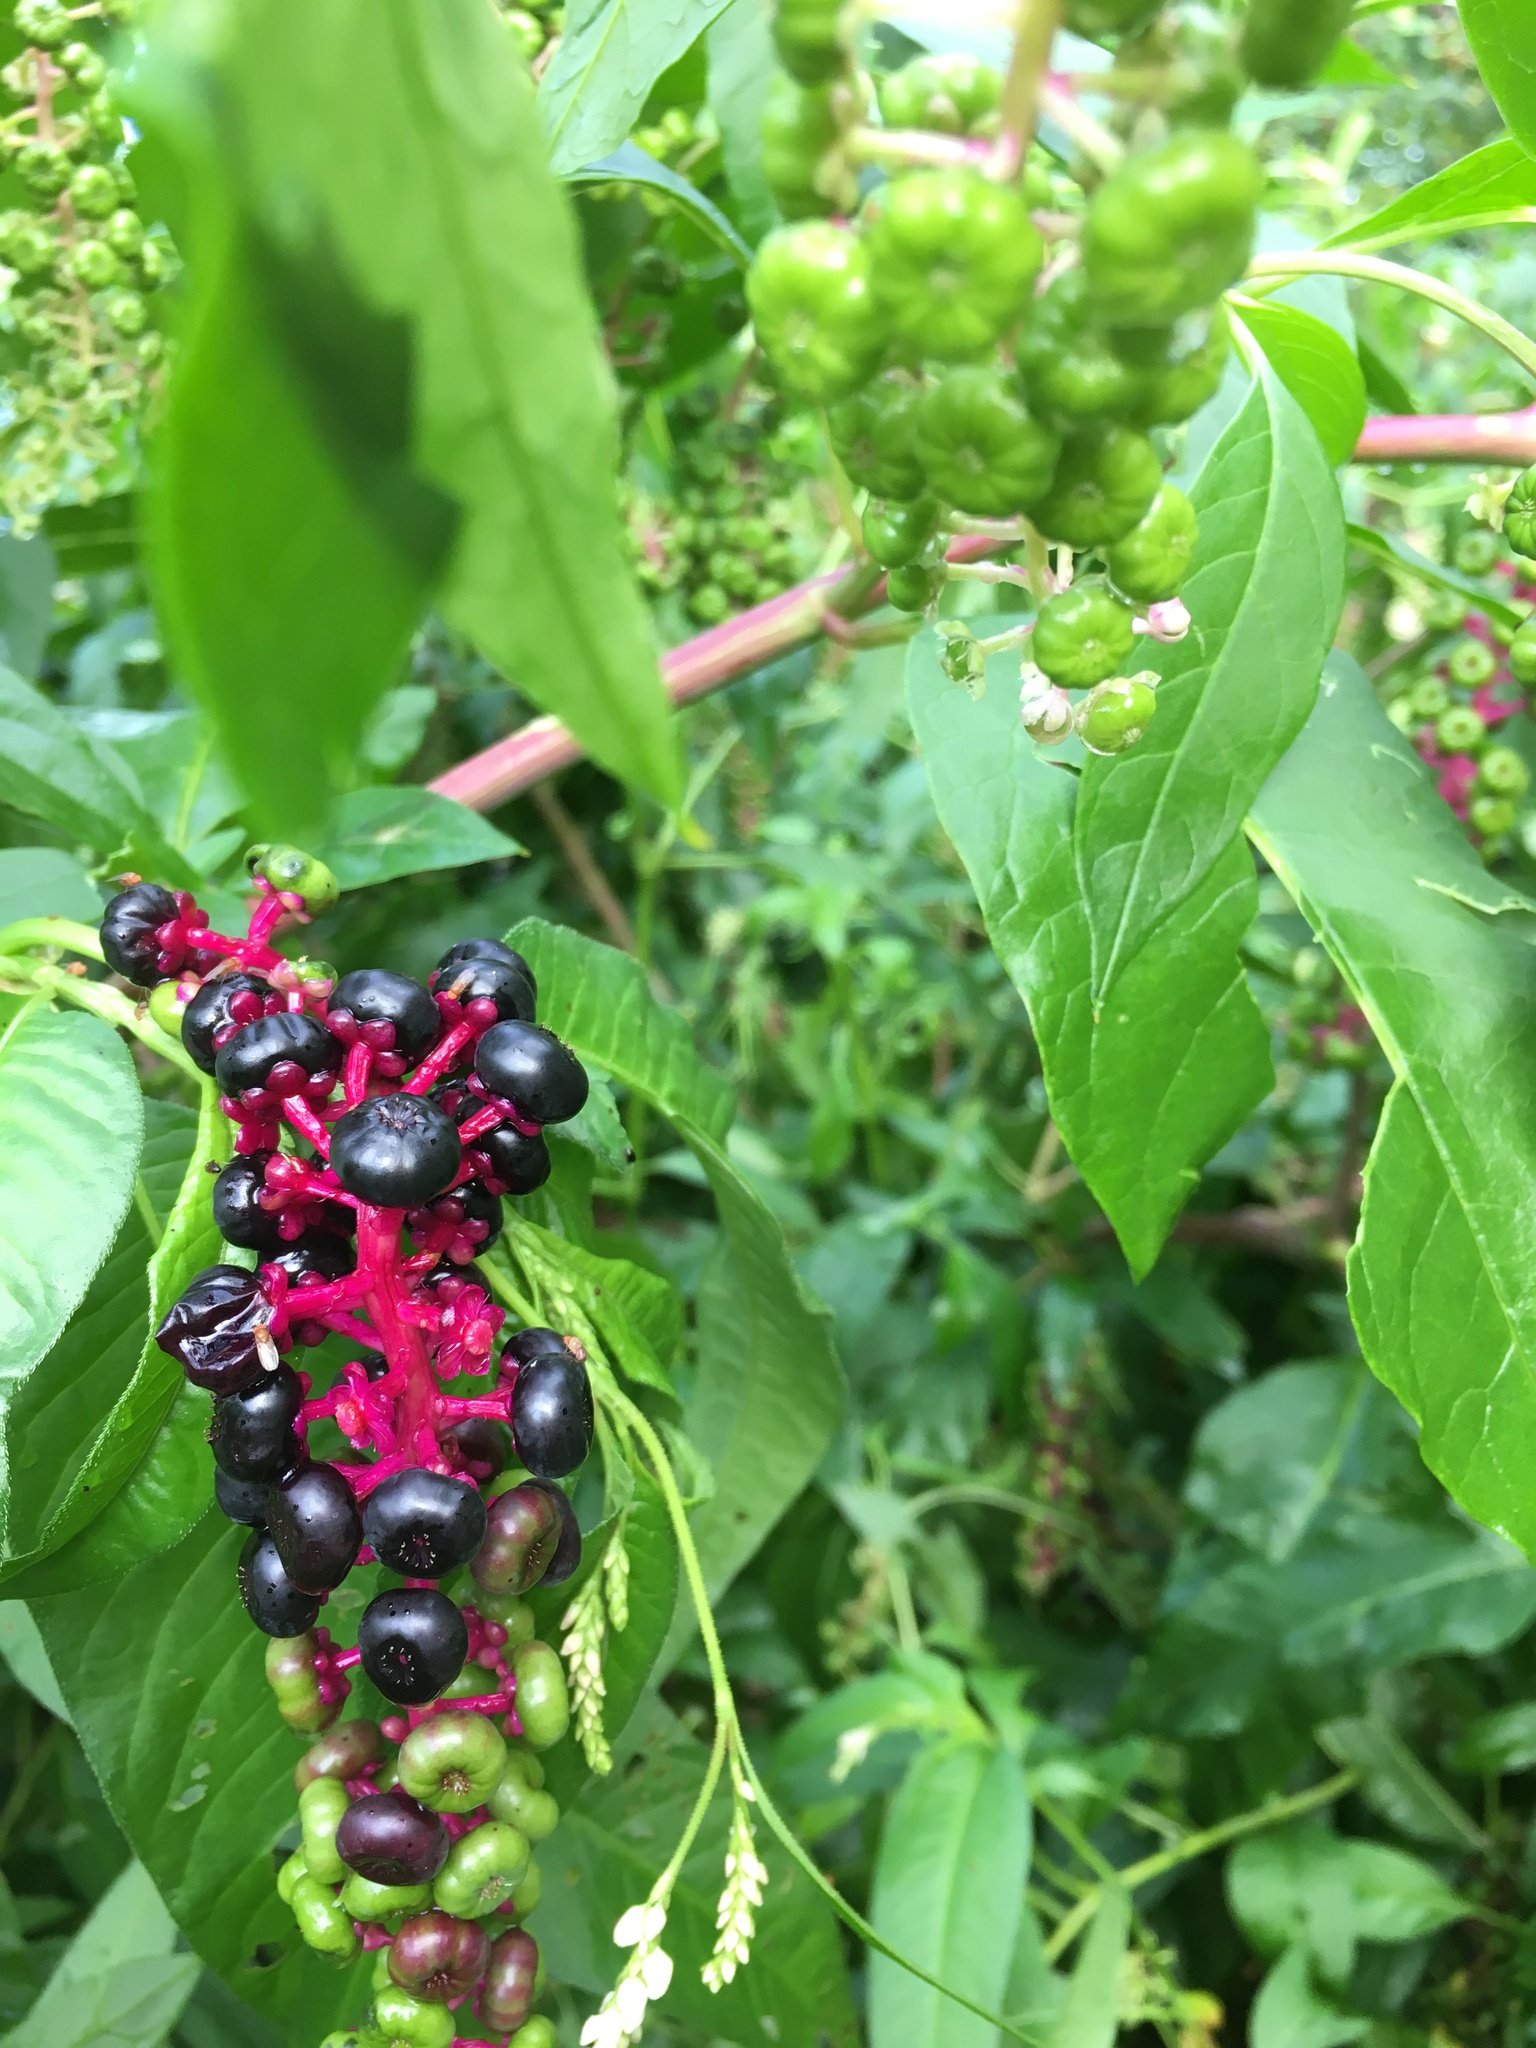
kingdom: Plantae
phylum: Tracheophyta
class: Magnoliopsida
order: Caryophyllales
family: Phytolaccaceae
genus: Phytolacca
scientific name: Phytolacca americana
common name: American pokeweed
